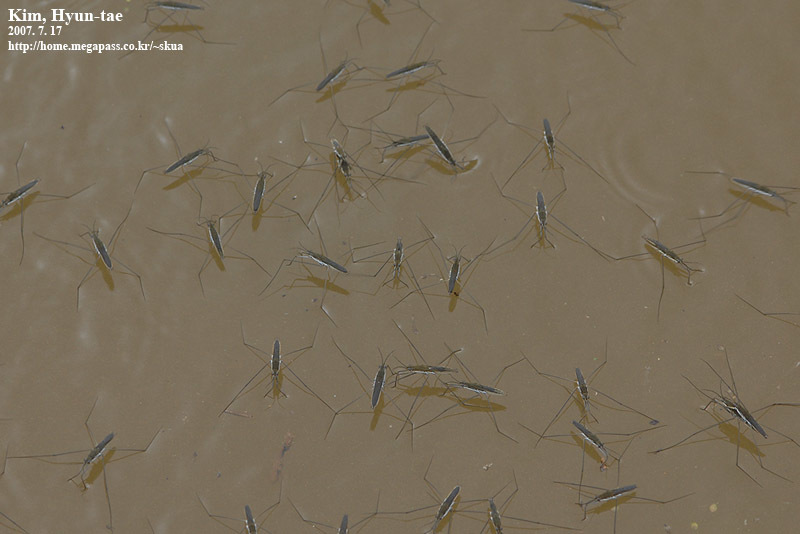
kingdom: Animalia
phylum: Arthropoda
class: Insecta
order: Hemiptera
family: Gerridae
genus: Aquarius
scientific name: Aquarius paludum
